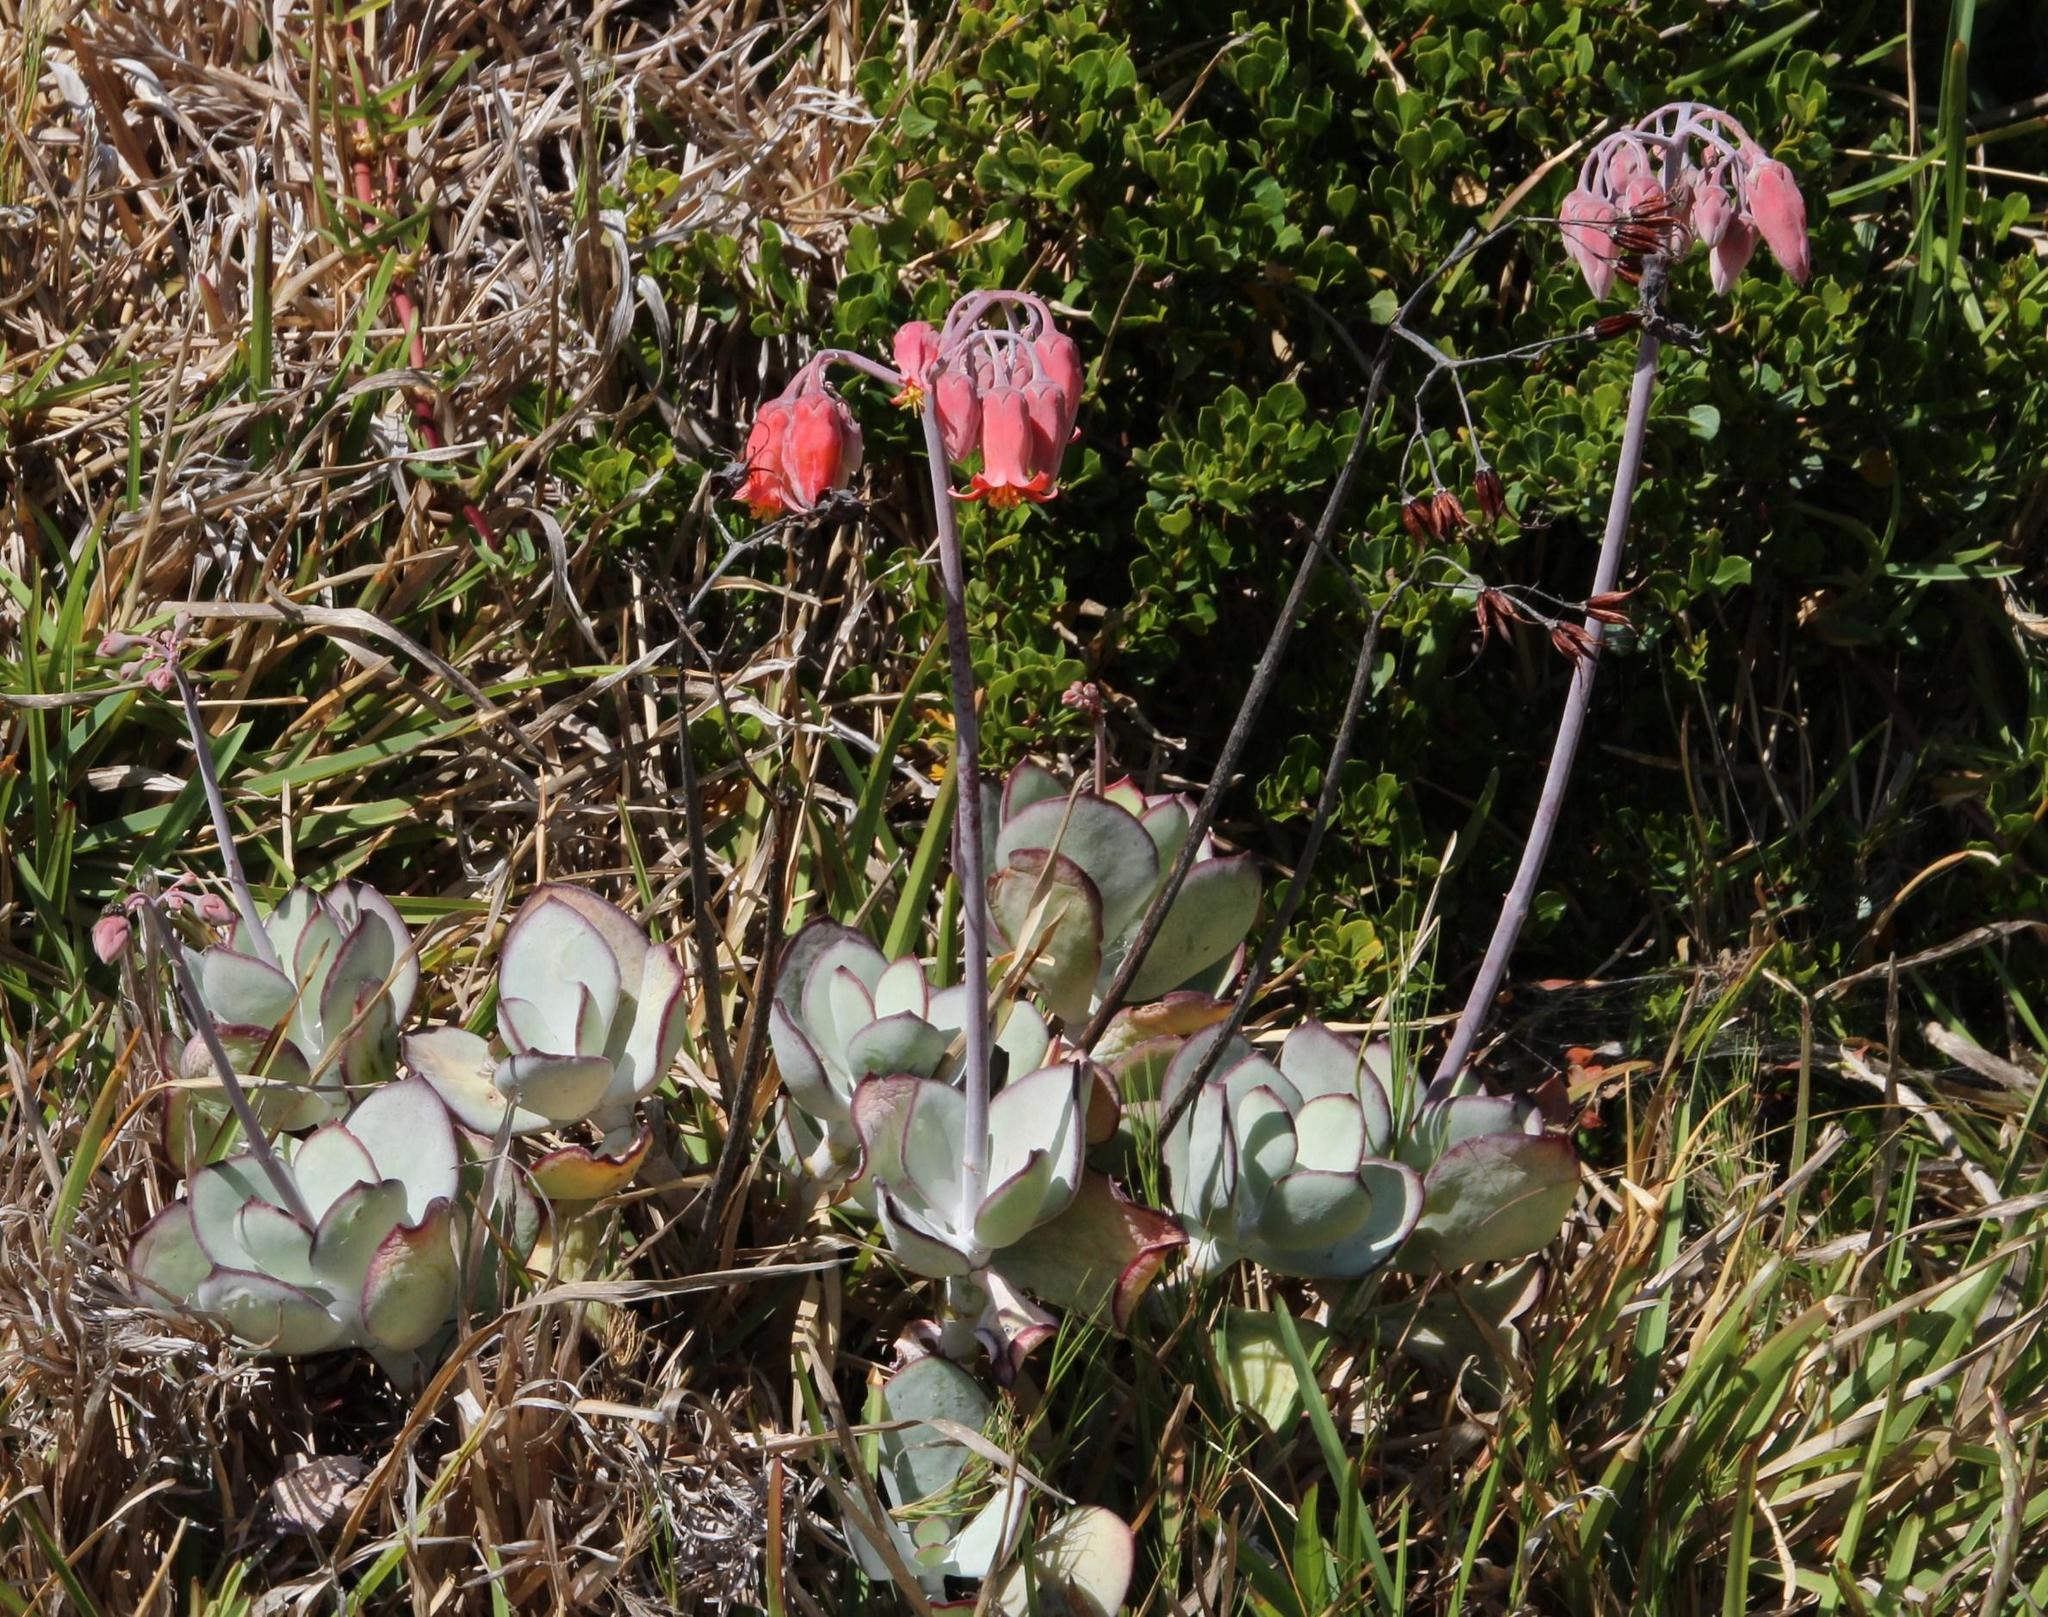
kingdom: Plantae
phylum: Tracheophyta
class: Magnoliopsida
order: Saxifragales
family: Crassulaceae
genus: Cotyledon
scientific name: Cotyledon orbiculata
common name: Pig's ear
